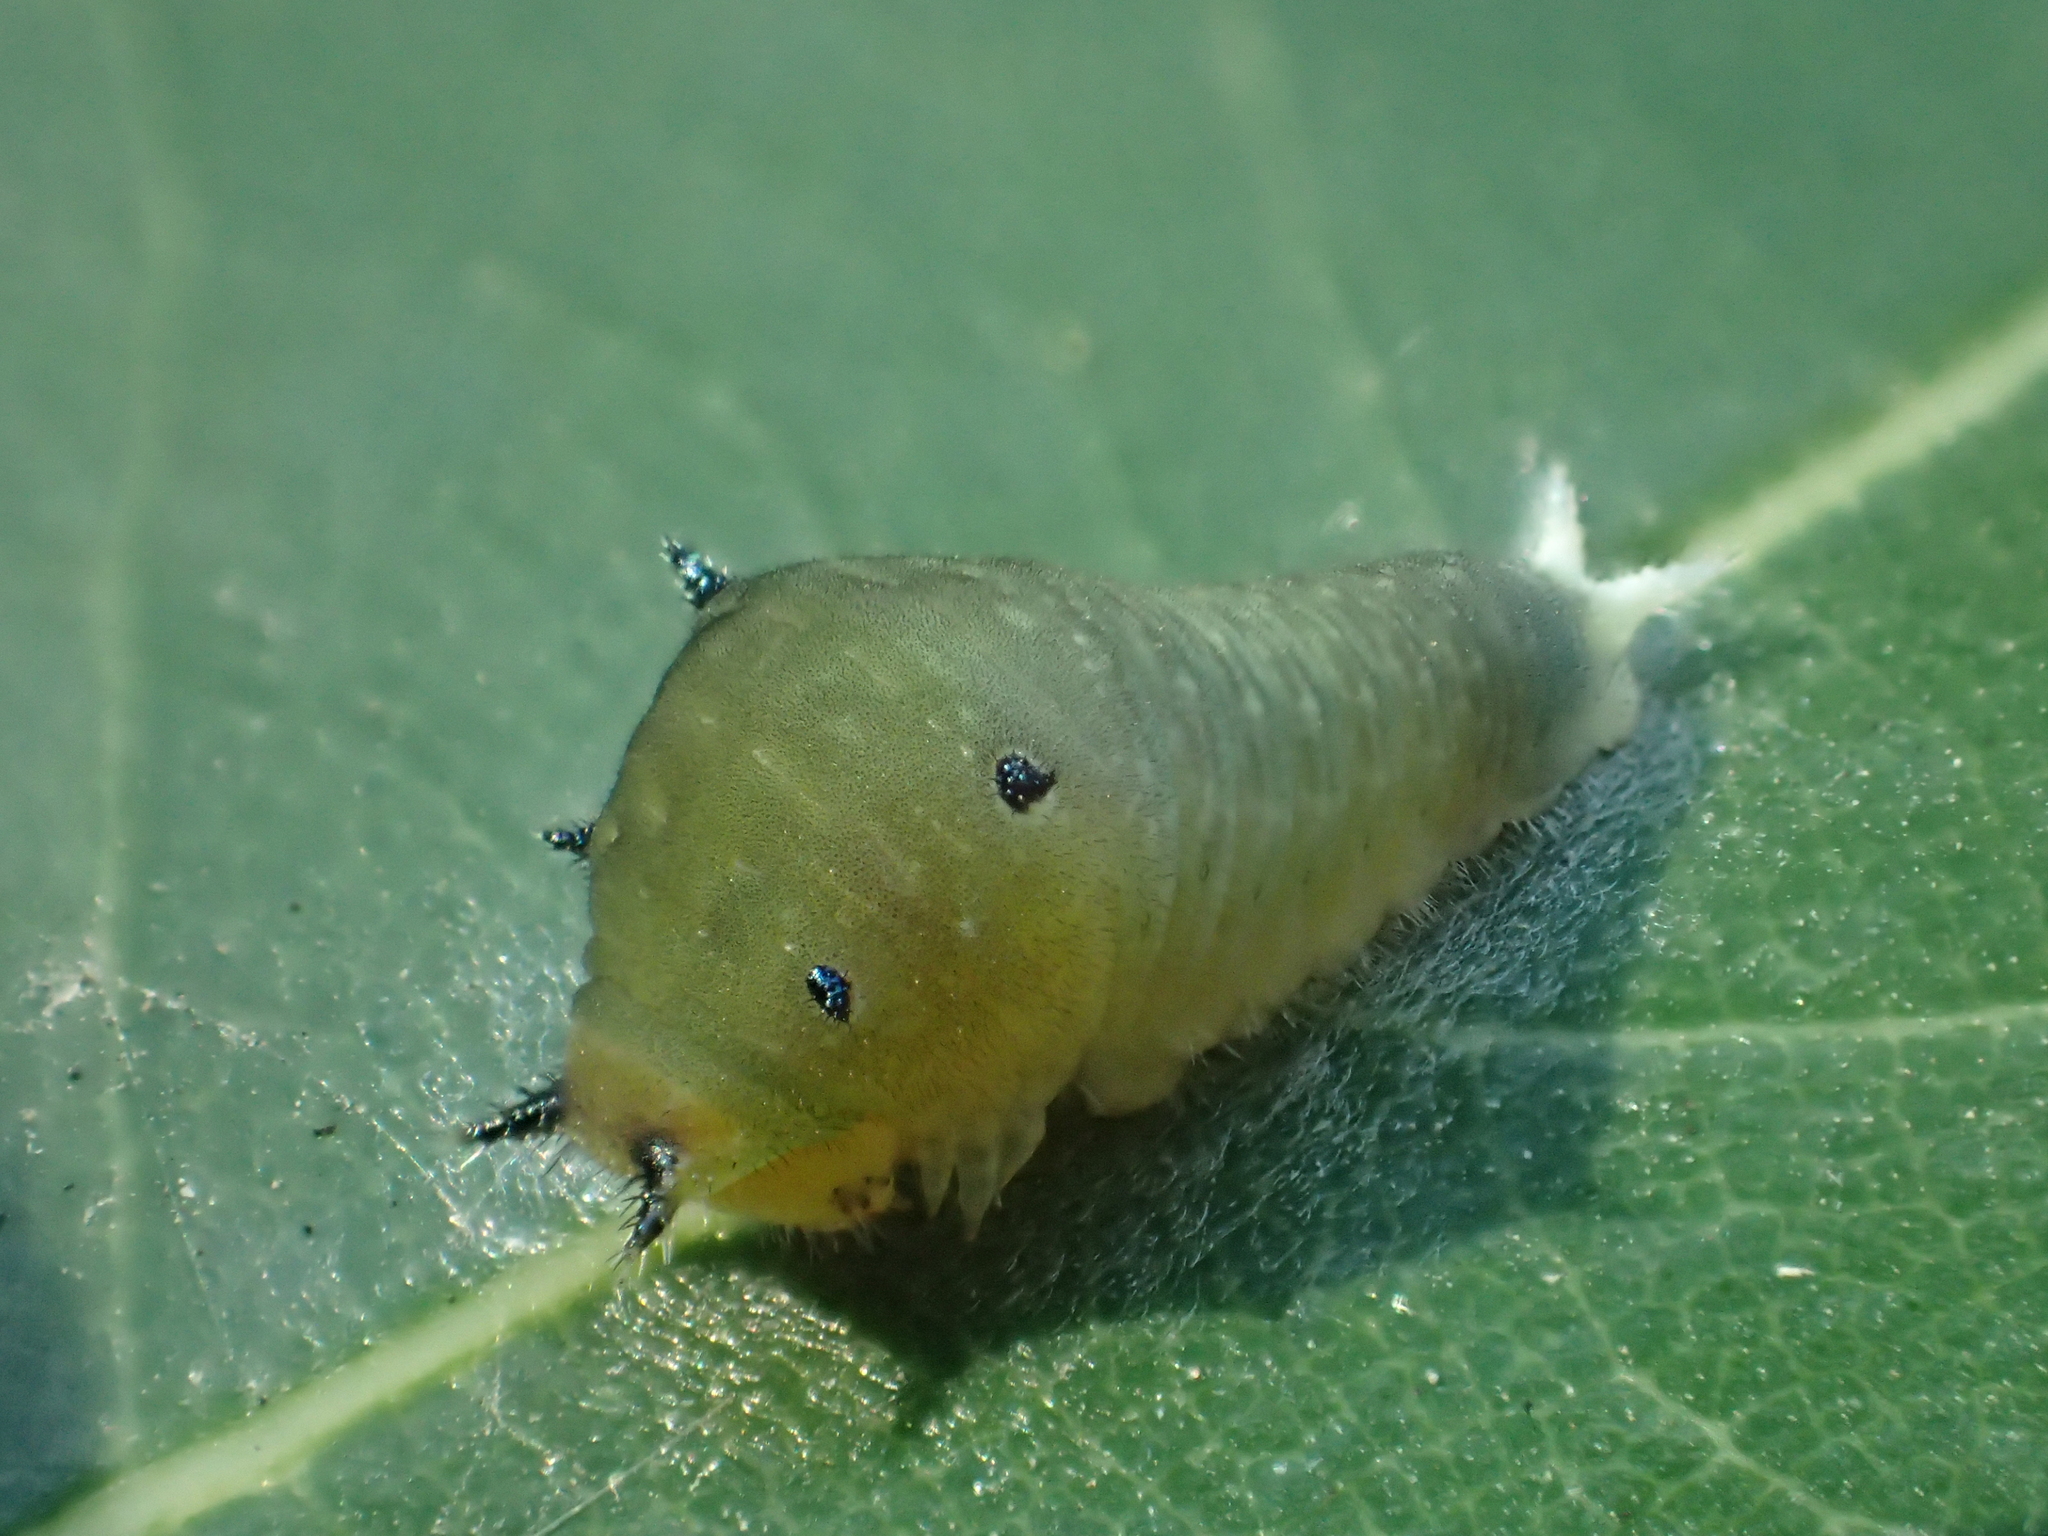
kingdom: Fungi
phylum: Ascomycota
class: Sordariomycetes
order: Microascales
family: Microascaceae
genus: Graphium
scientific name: Graphium sarpedon
